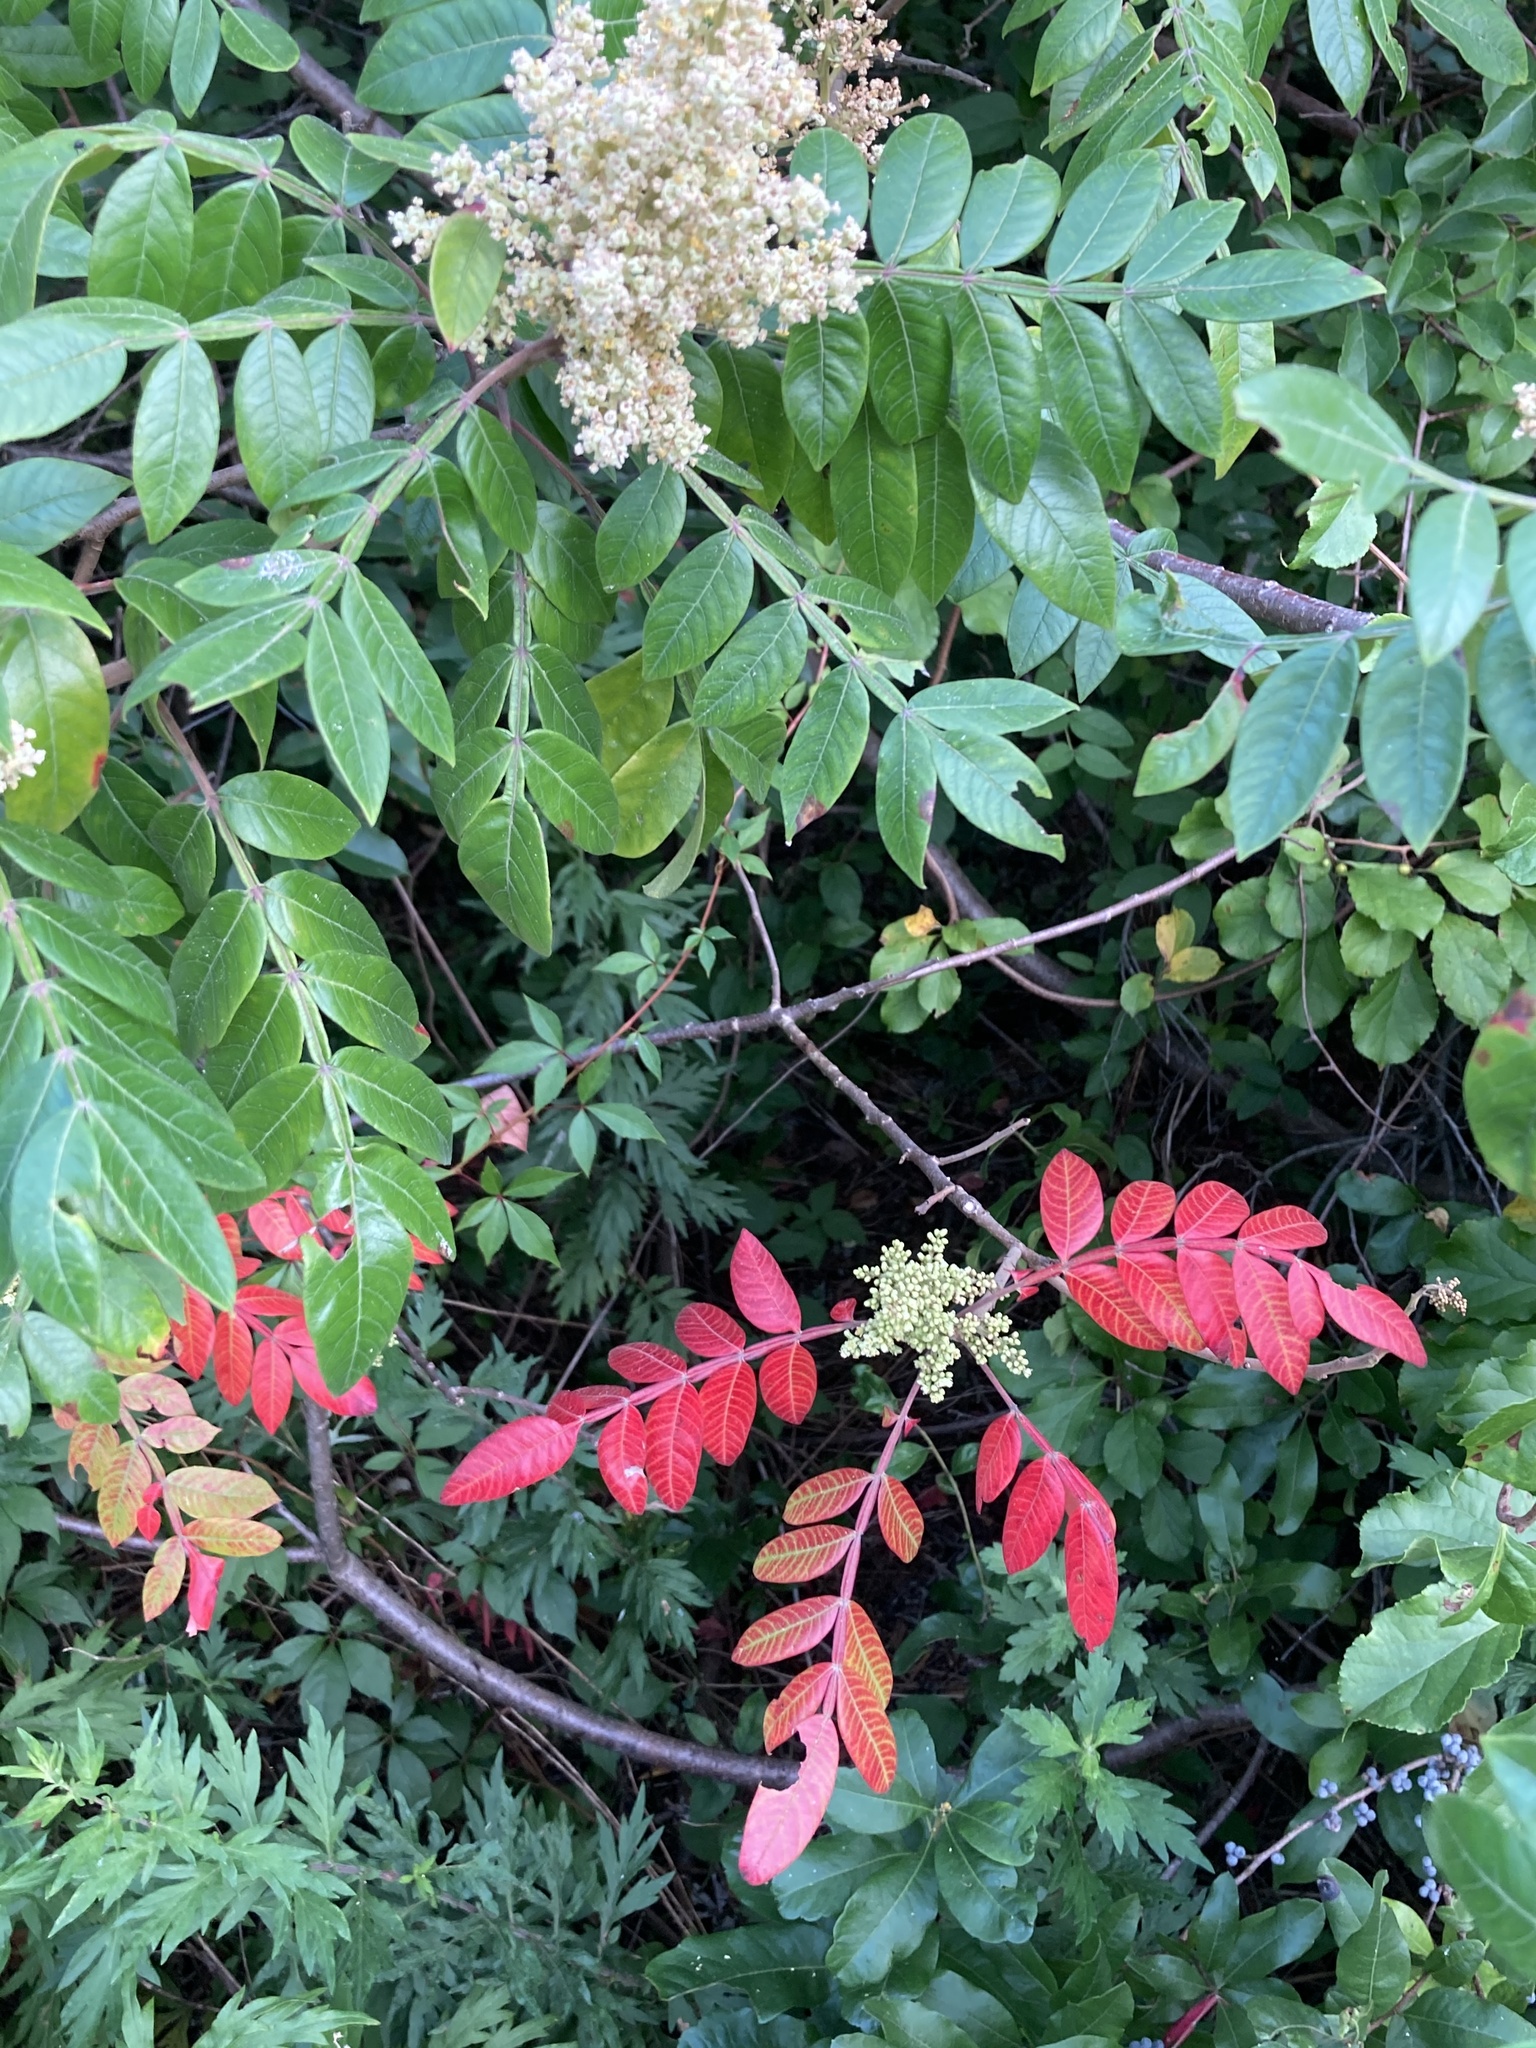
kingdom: Plantae
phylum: Tracheophyta
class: Magnoliopsida
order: Sapindales
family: Anacardiaceae
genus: Rhus
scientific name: Rhus copallina
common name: Shining sumac
